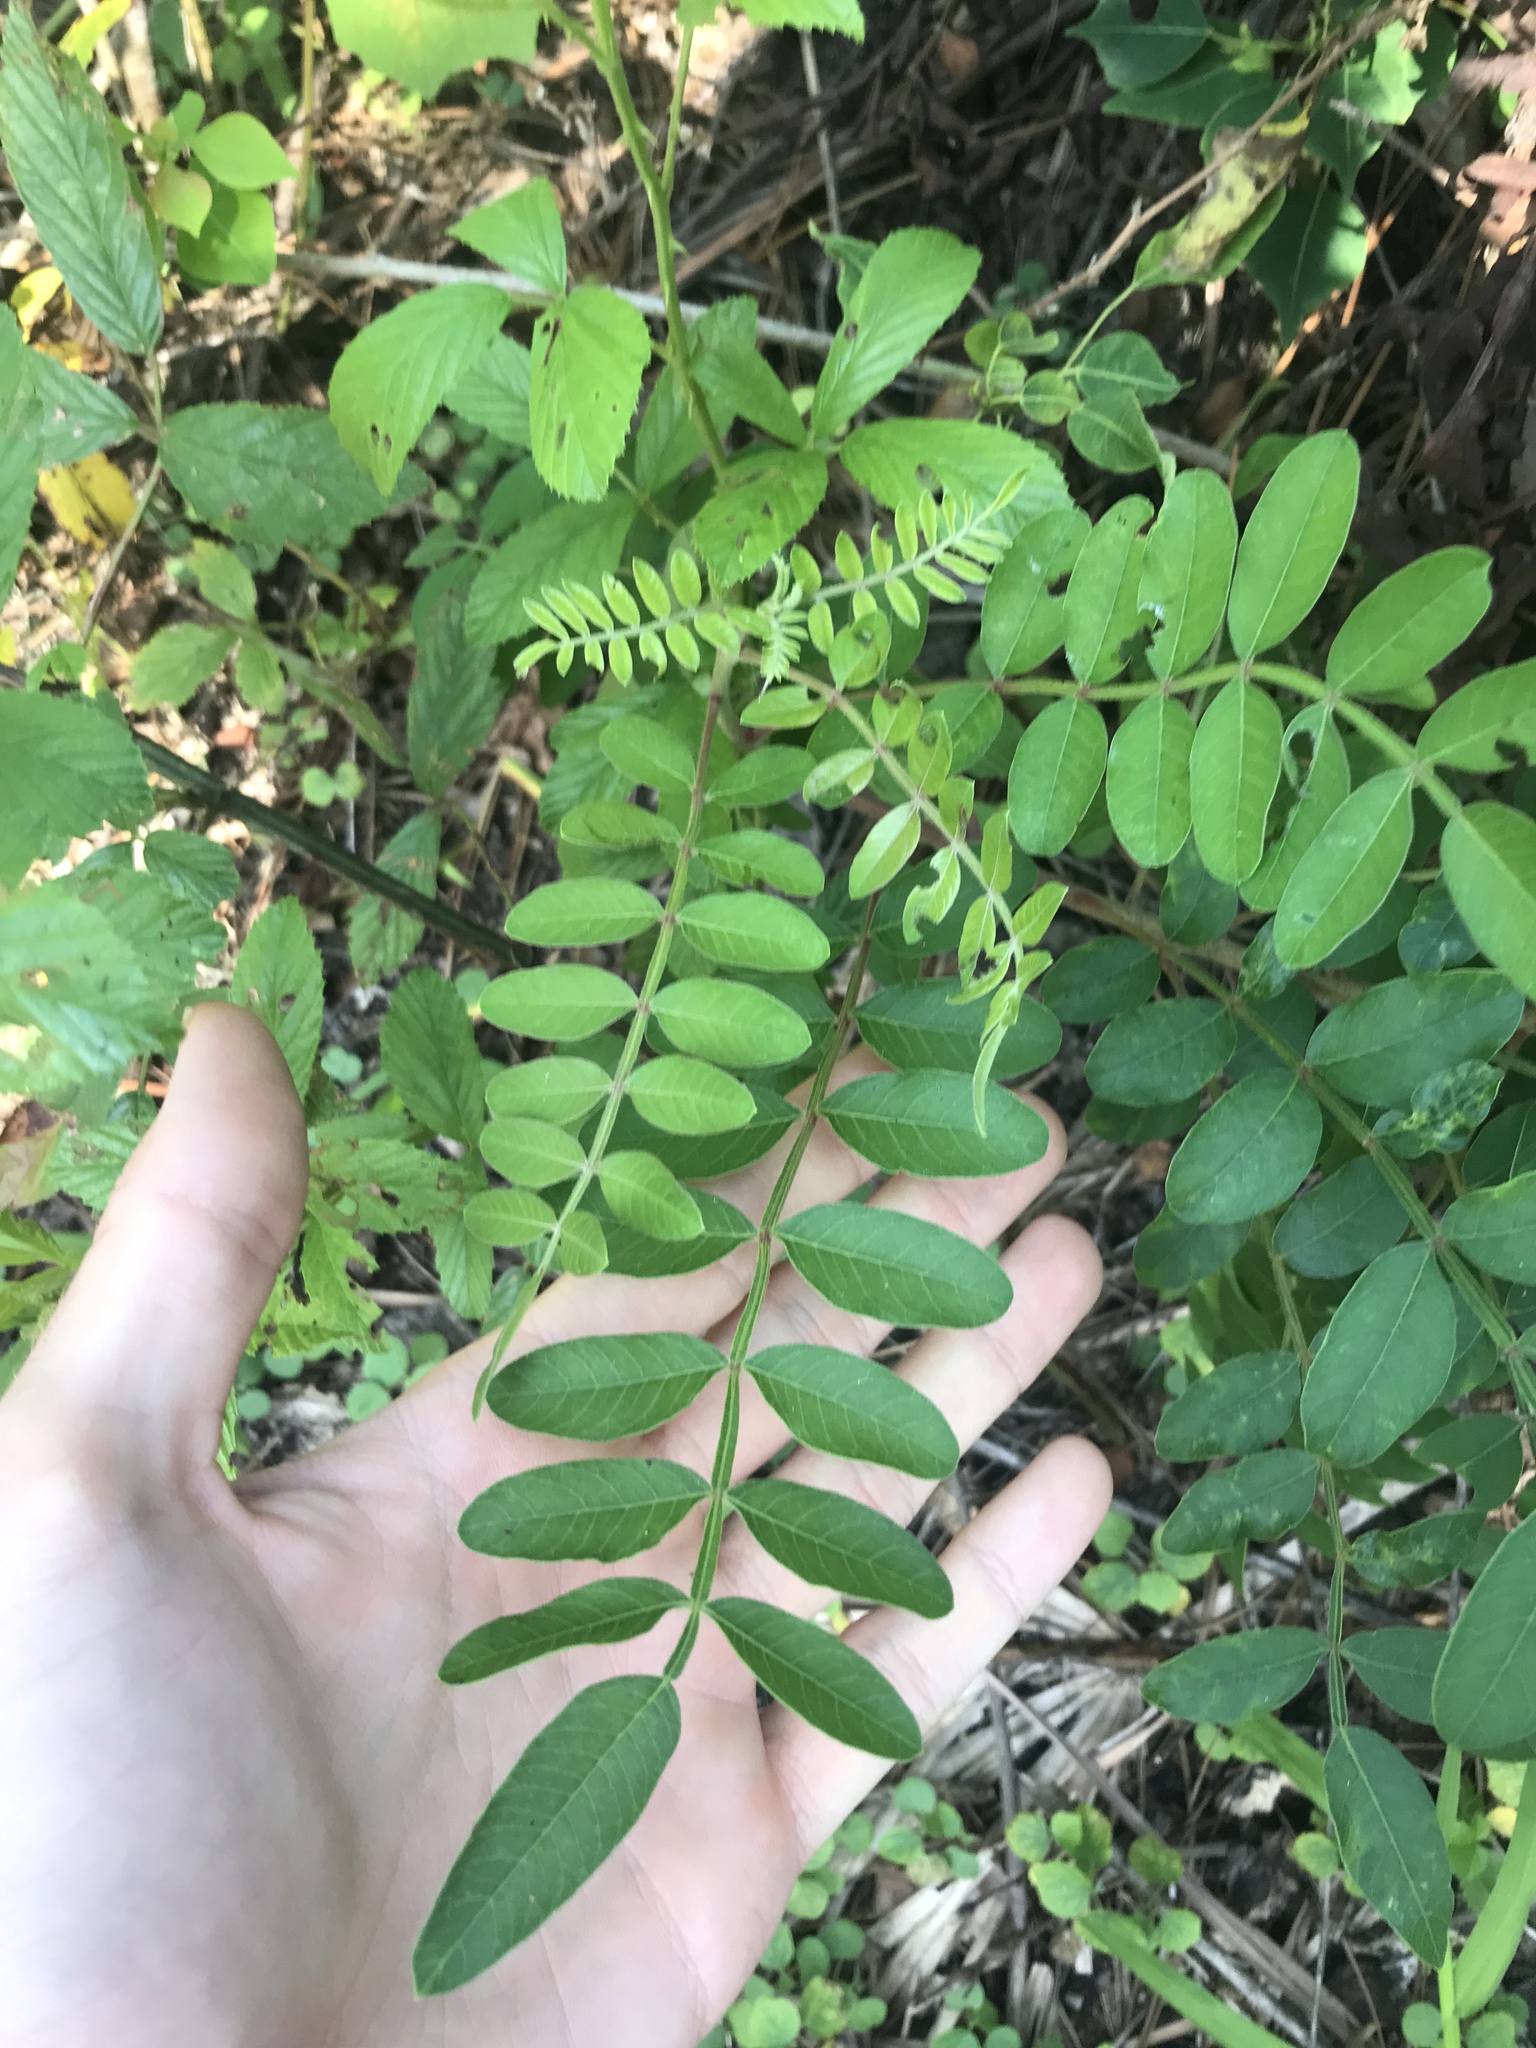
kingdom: Plantae
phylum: Tracheophyta
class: Magnoliopsida
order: Sapindales
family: Anacardiaceae
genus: Rhus
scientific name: Rhus copallina
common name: Shining sumac
